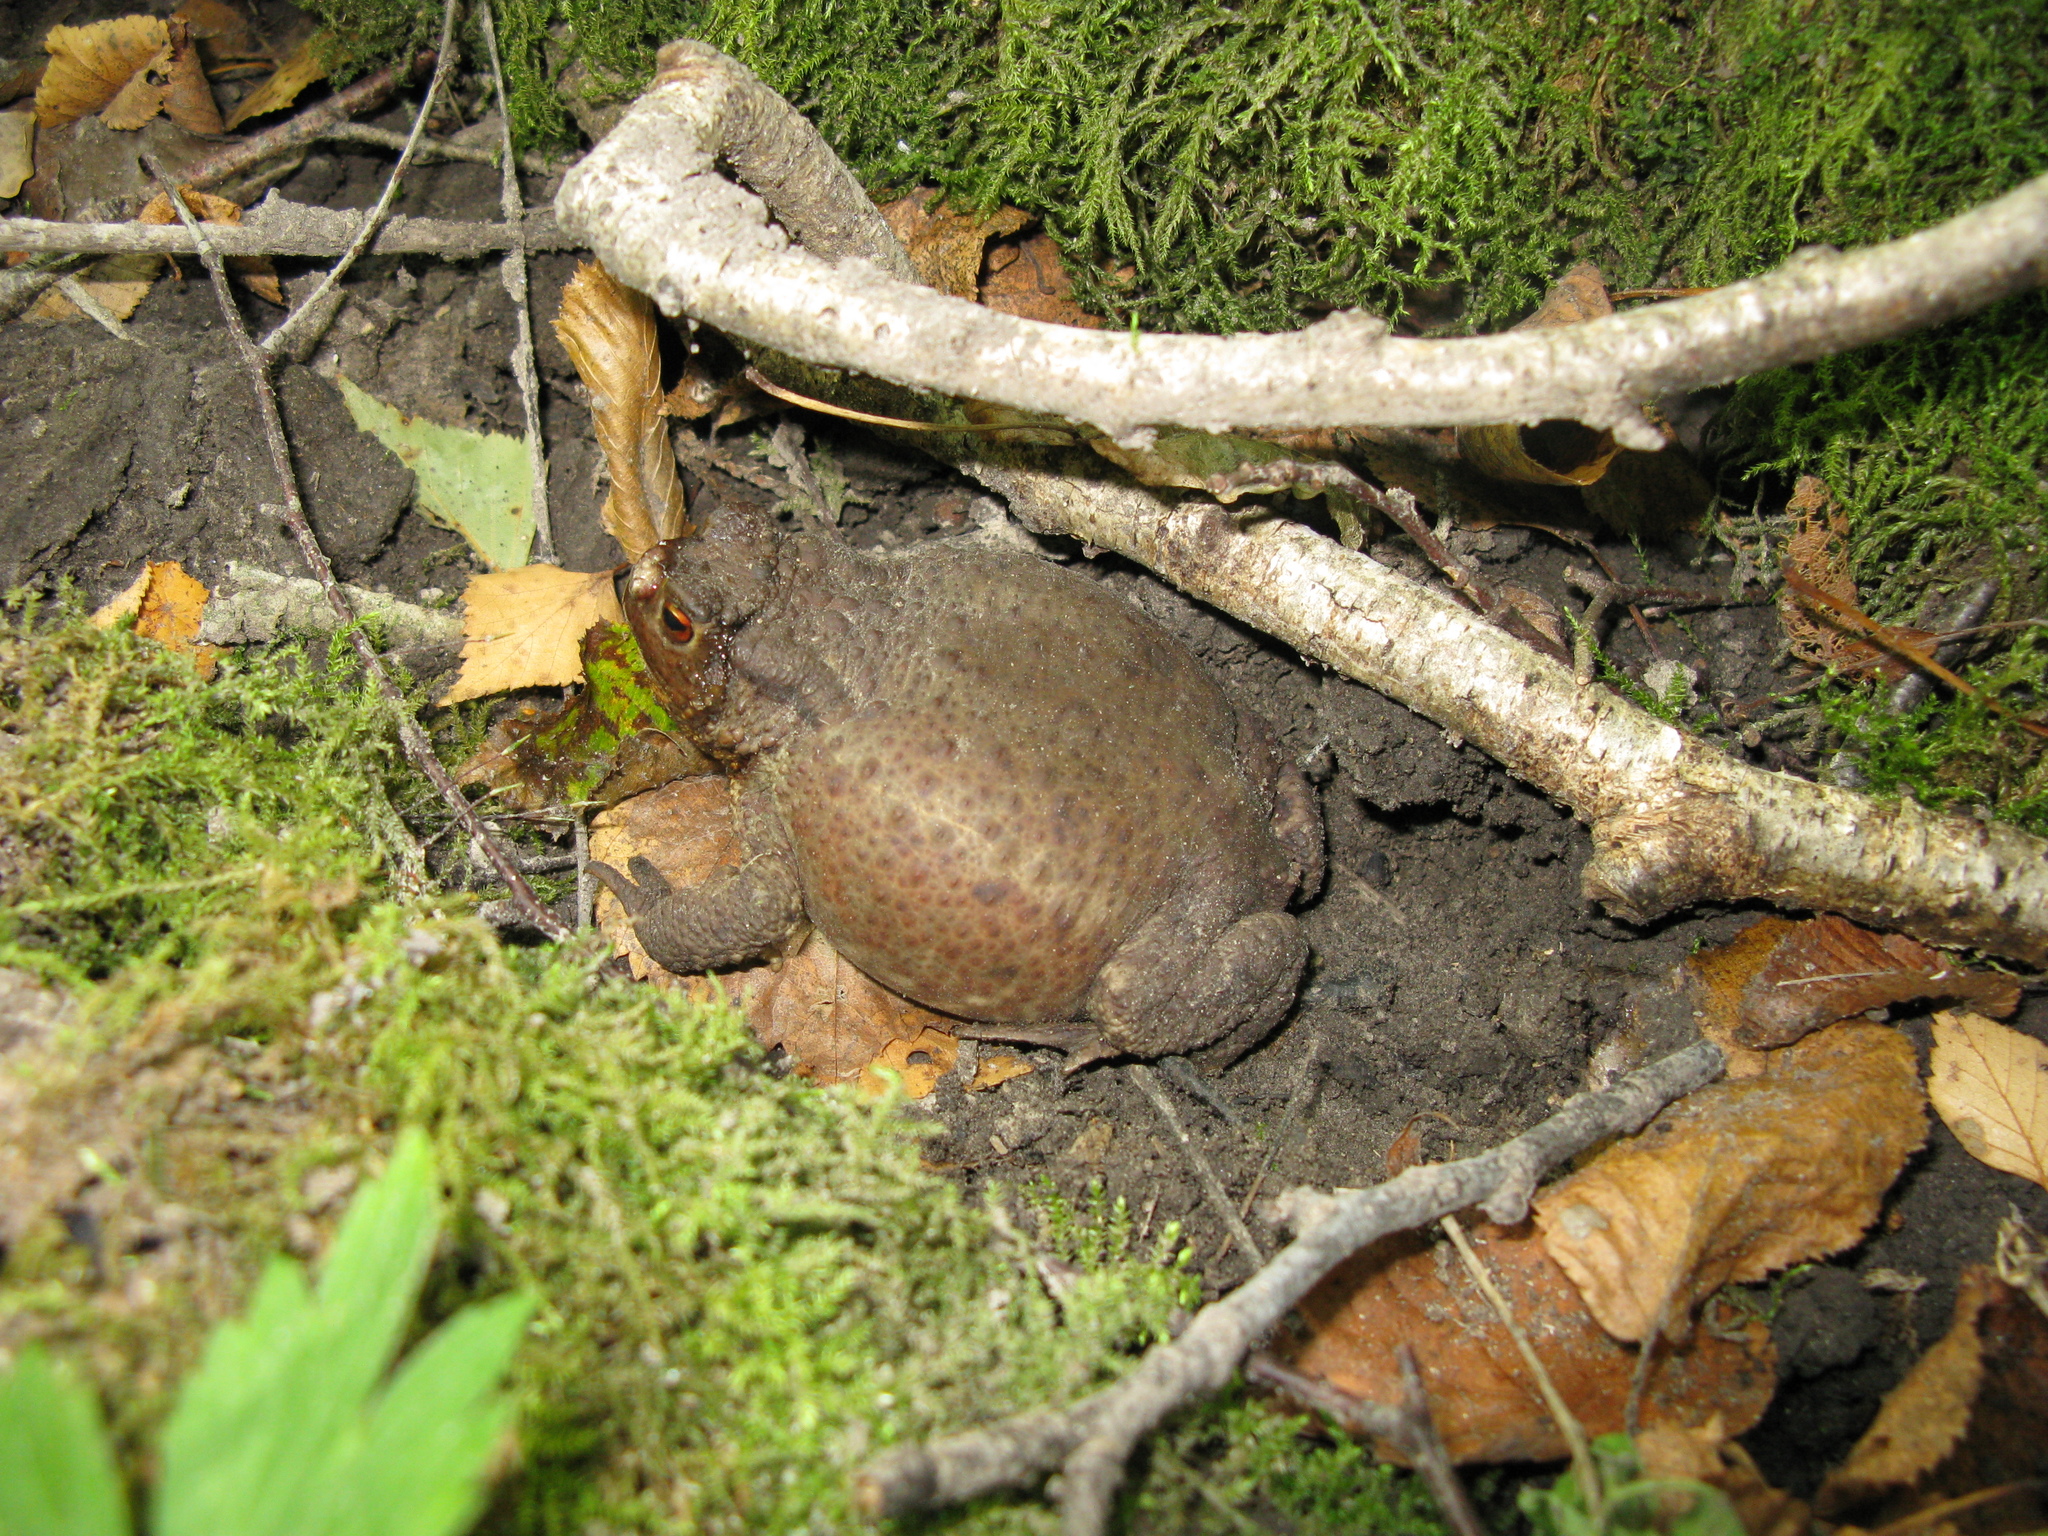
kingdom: Animalia
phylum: Chordata
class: Amphibia
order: Anura
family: Bufonidae
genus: Bufo
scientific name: Bufo bufo
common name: Common toad
